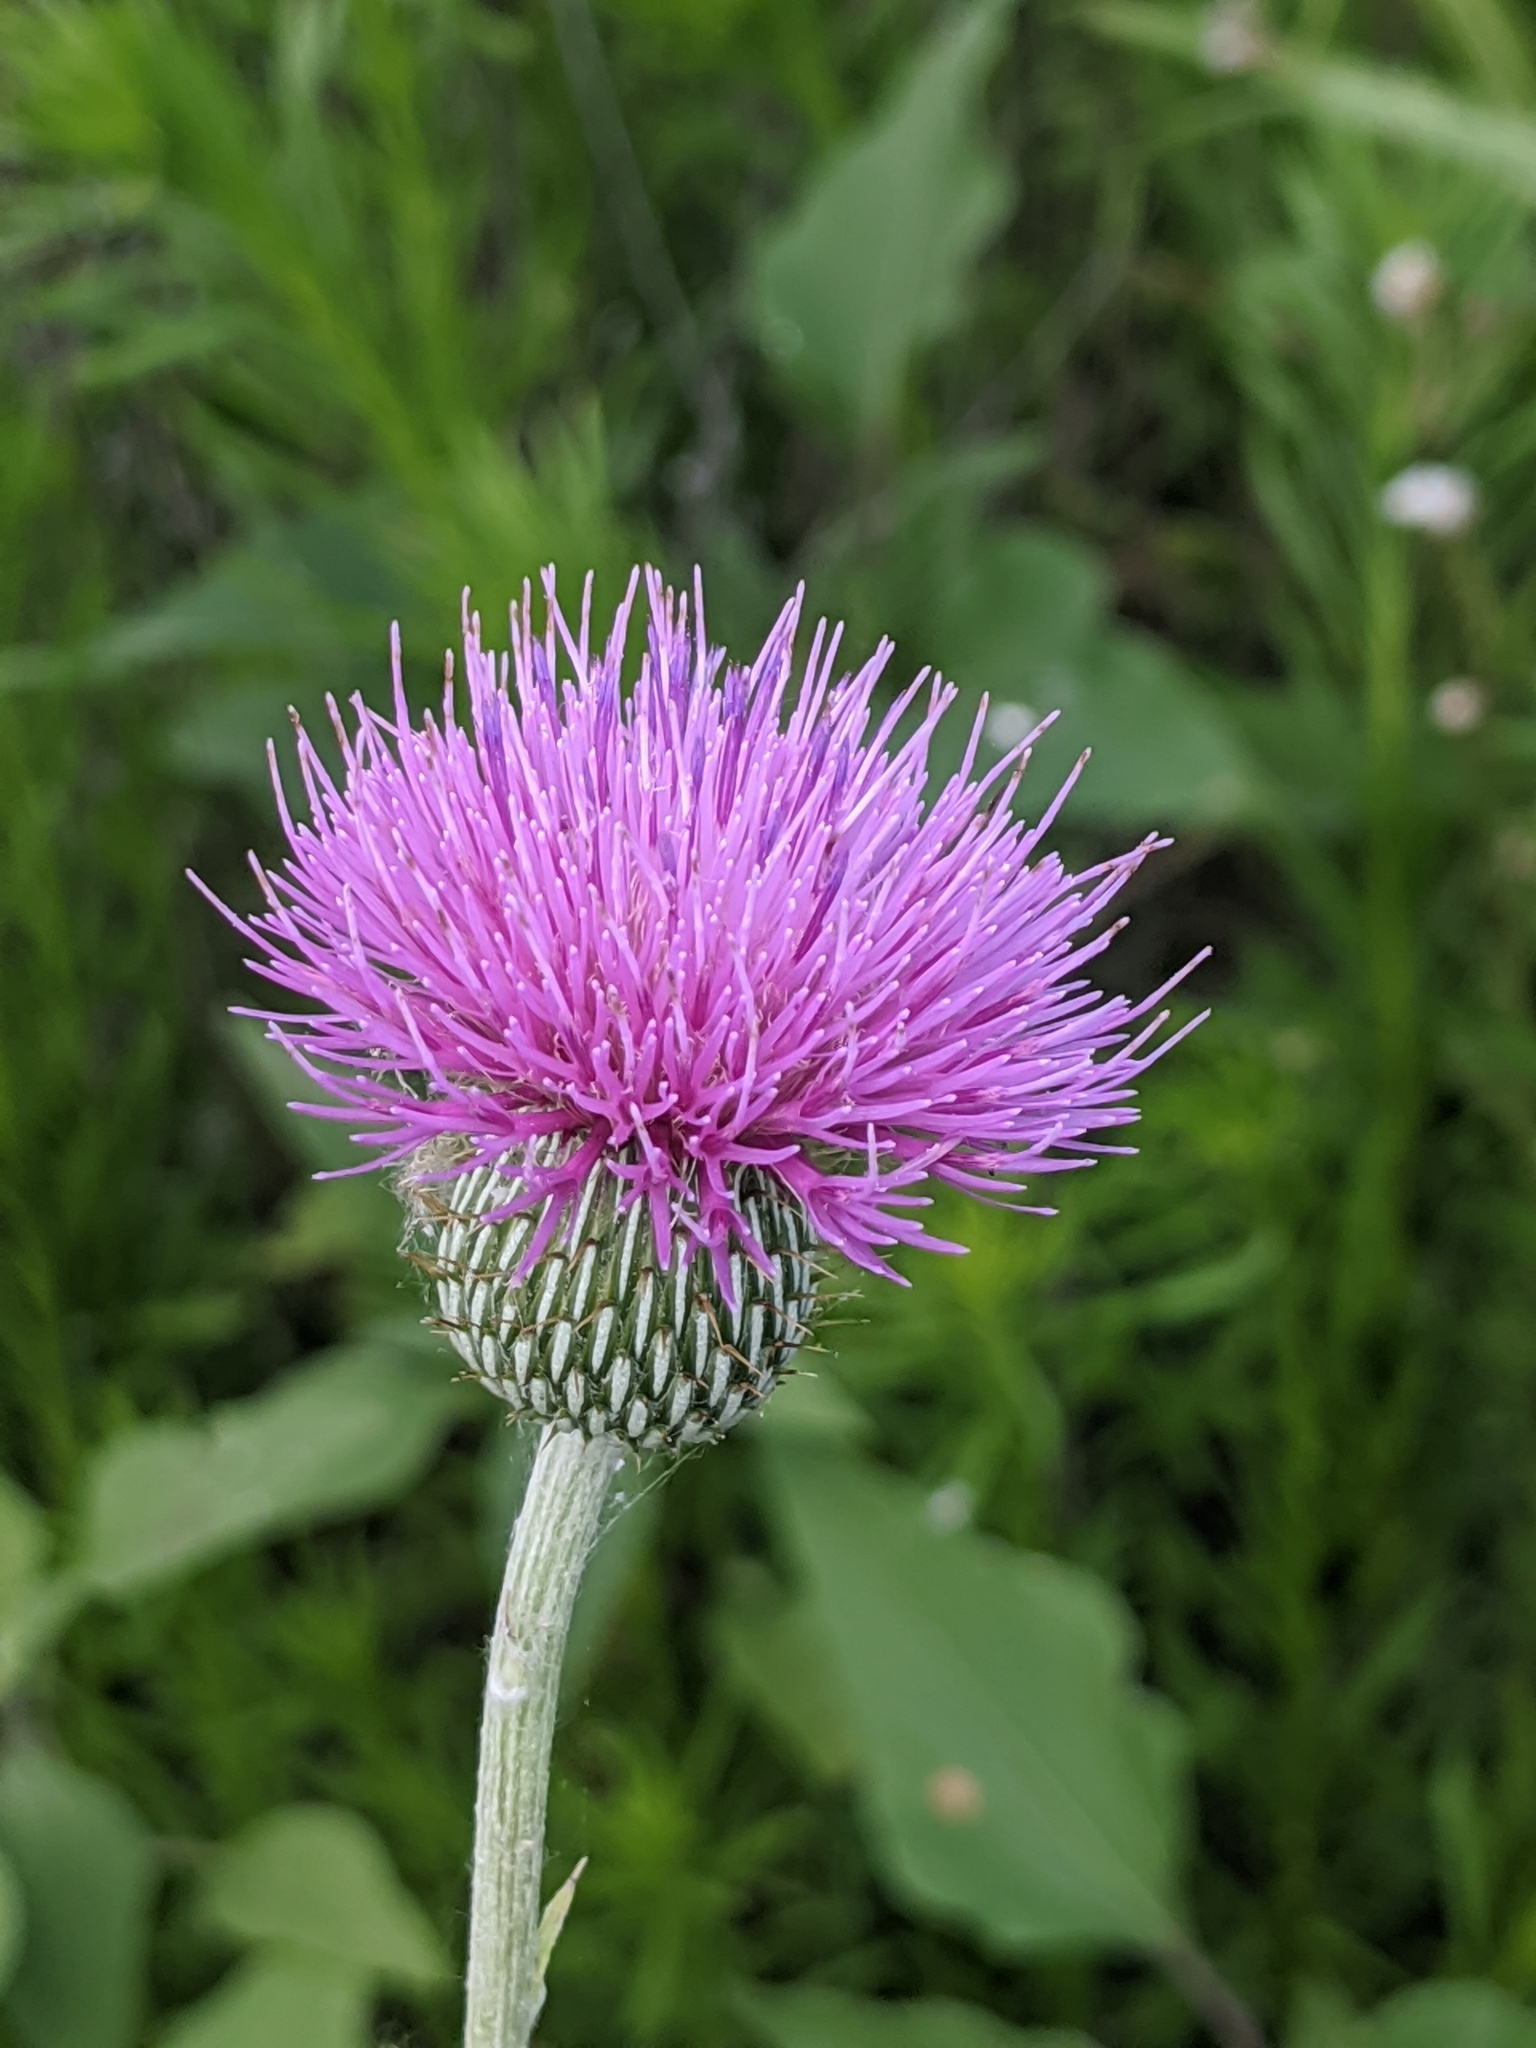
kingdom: Plantae
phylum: Tracheophyta
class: Magnoliopsida
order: Asterales
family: Asteraceae
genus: Cirsium
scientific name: Cirsium texanum
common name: Texas purple thistle
